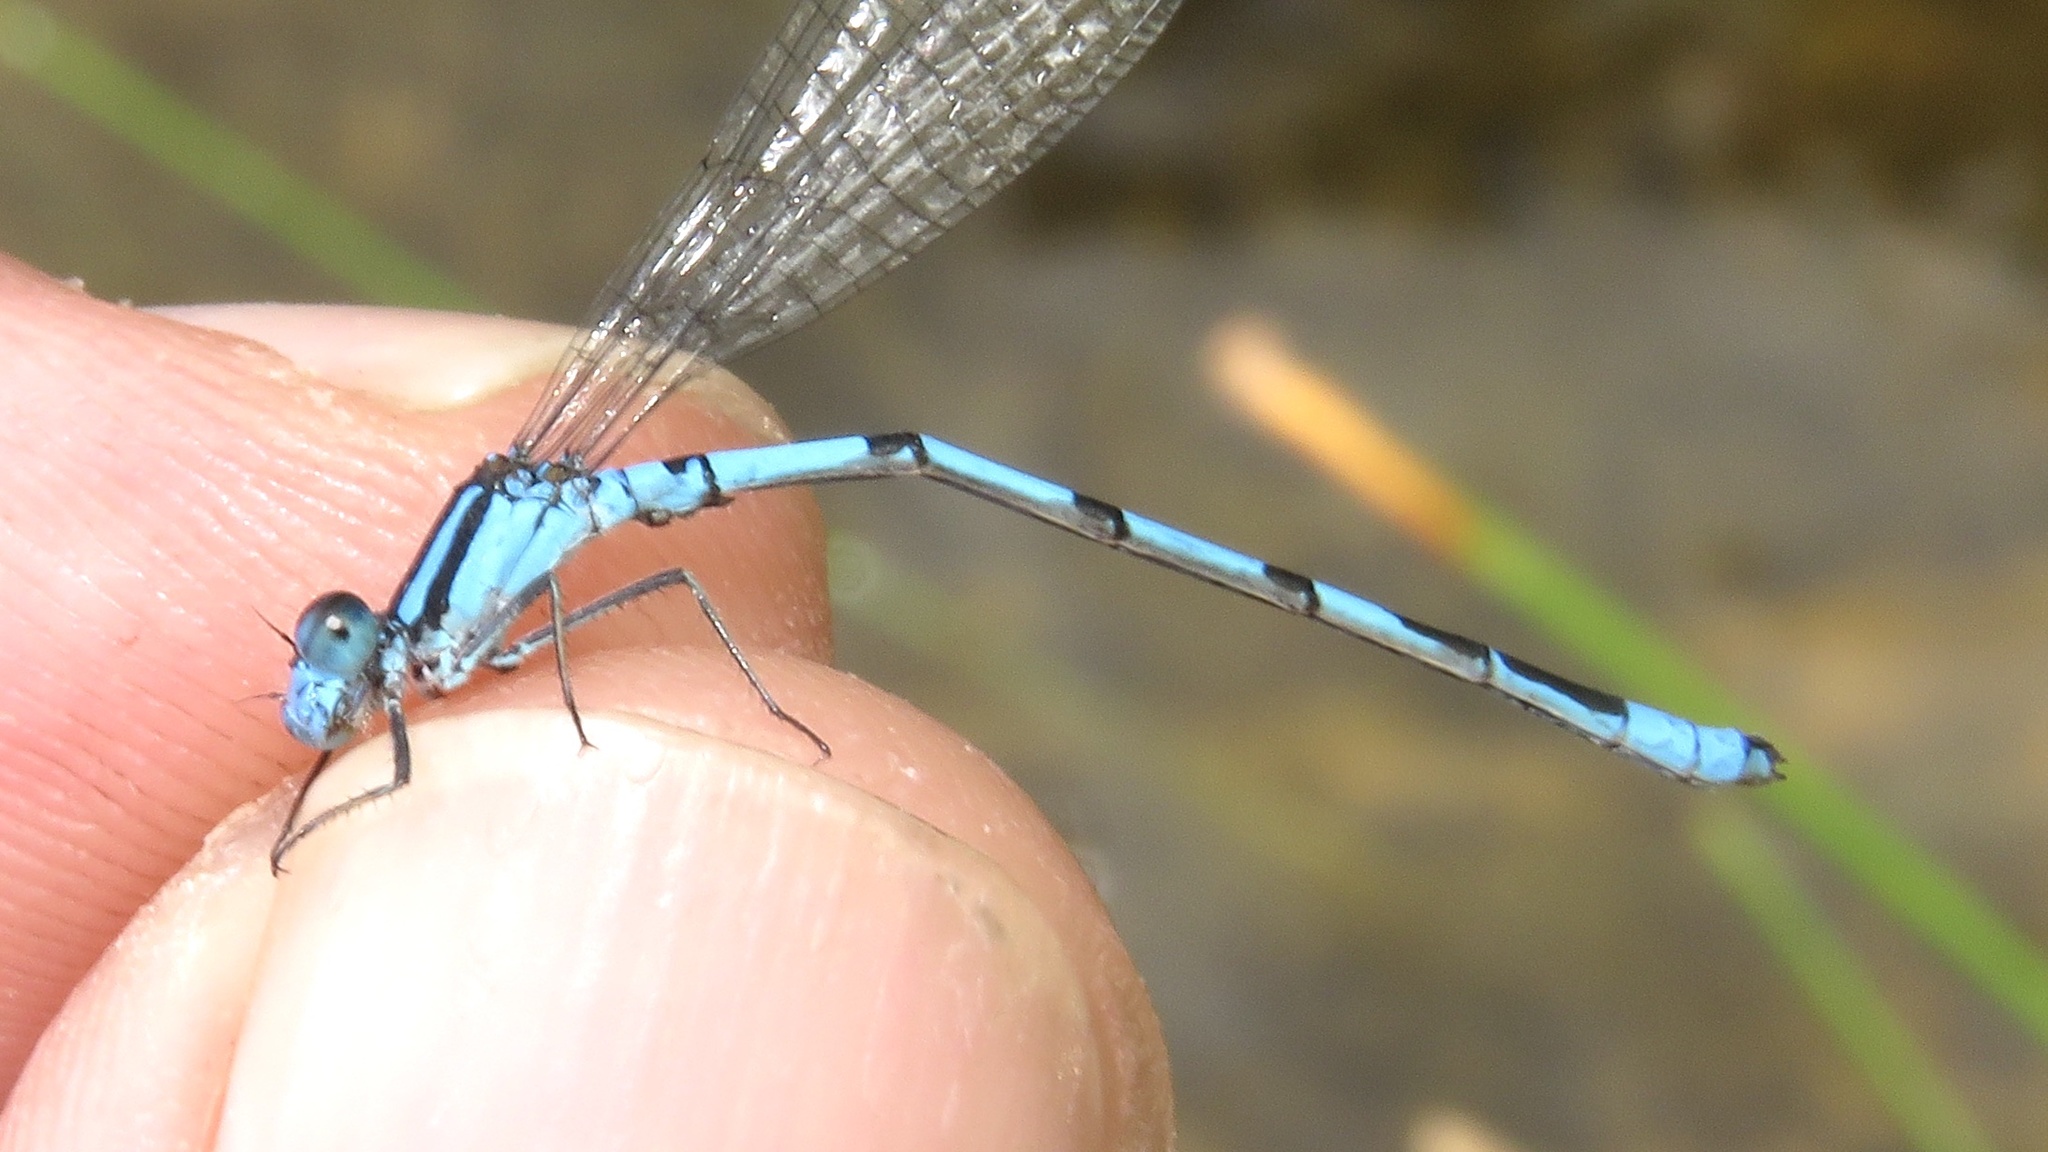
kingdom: Animalia
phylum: Arthropoda
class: Insecta
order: Odonata
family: Coenagrionidae
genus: Enallagma
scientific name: Enallagma hageni
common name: Hagen's bluet
